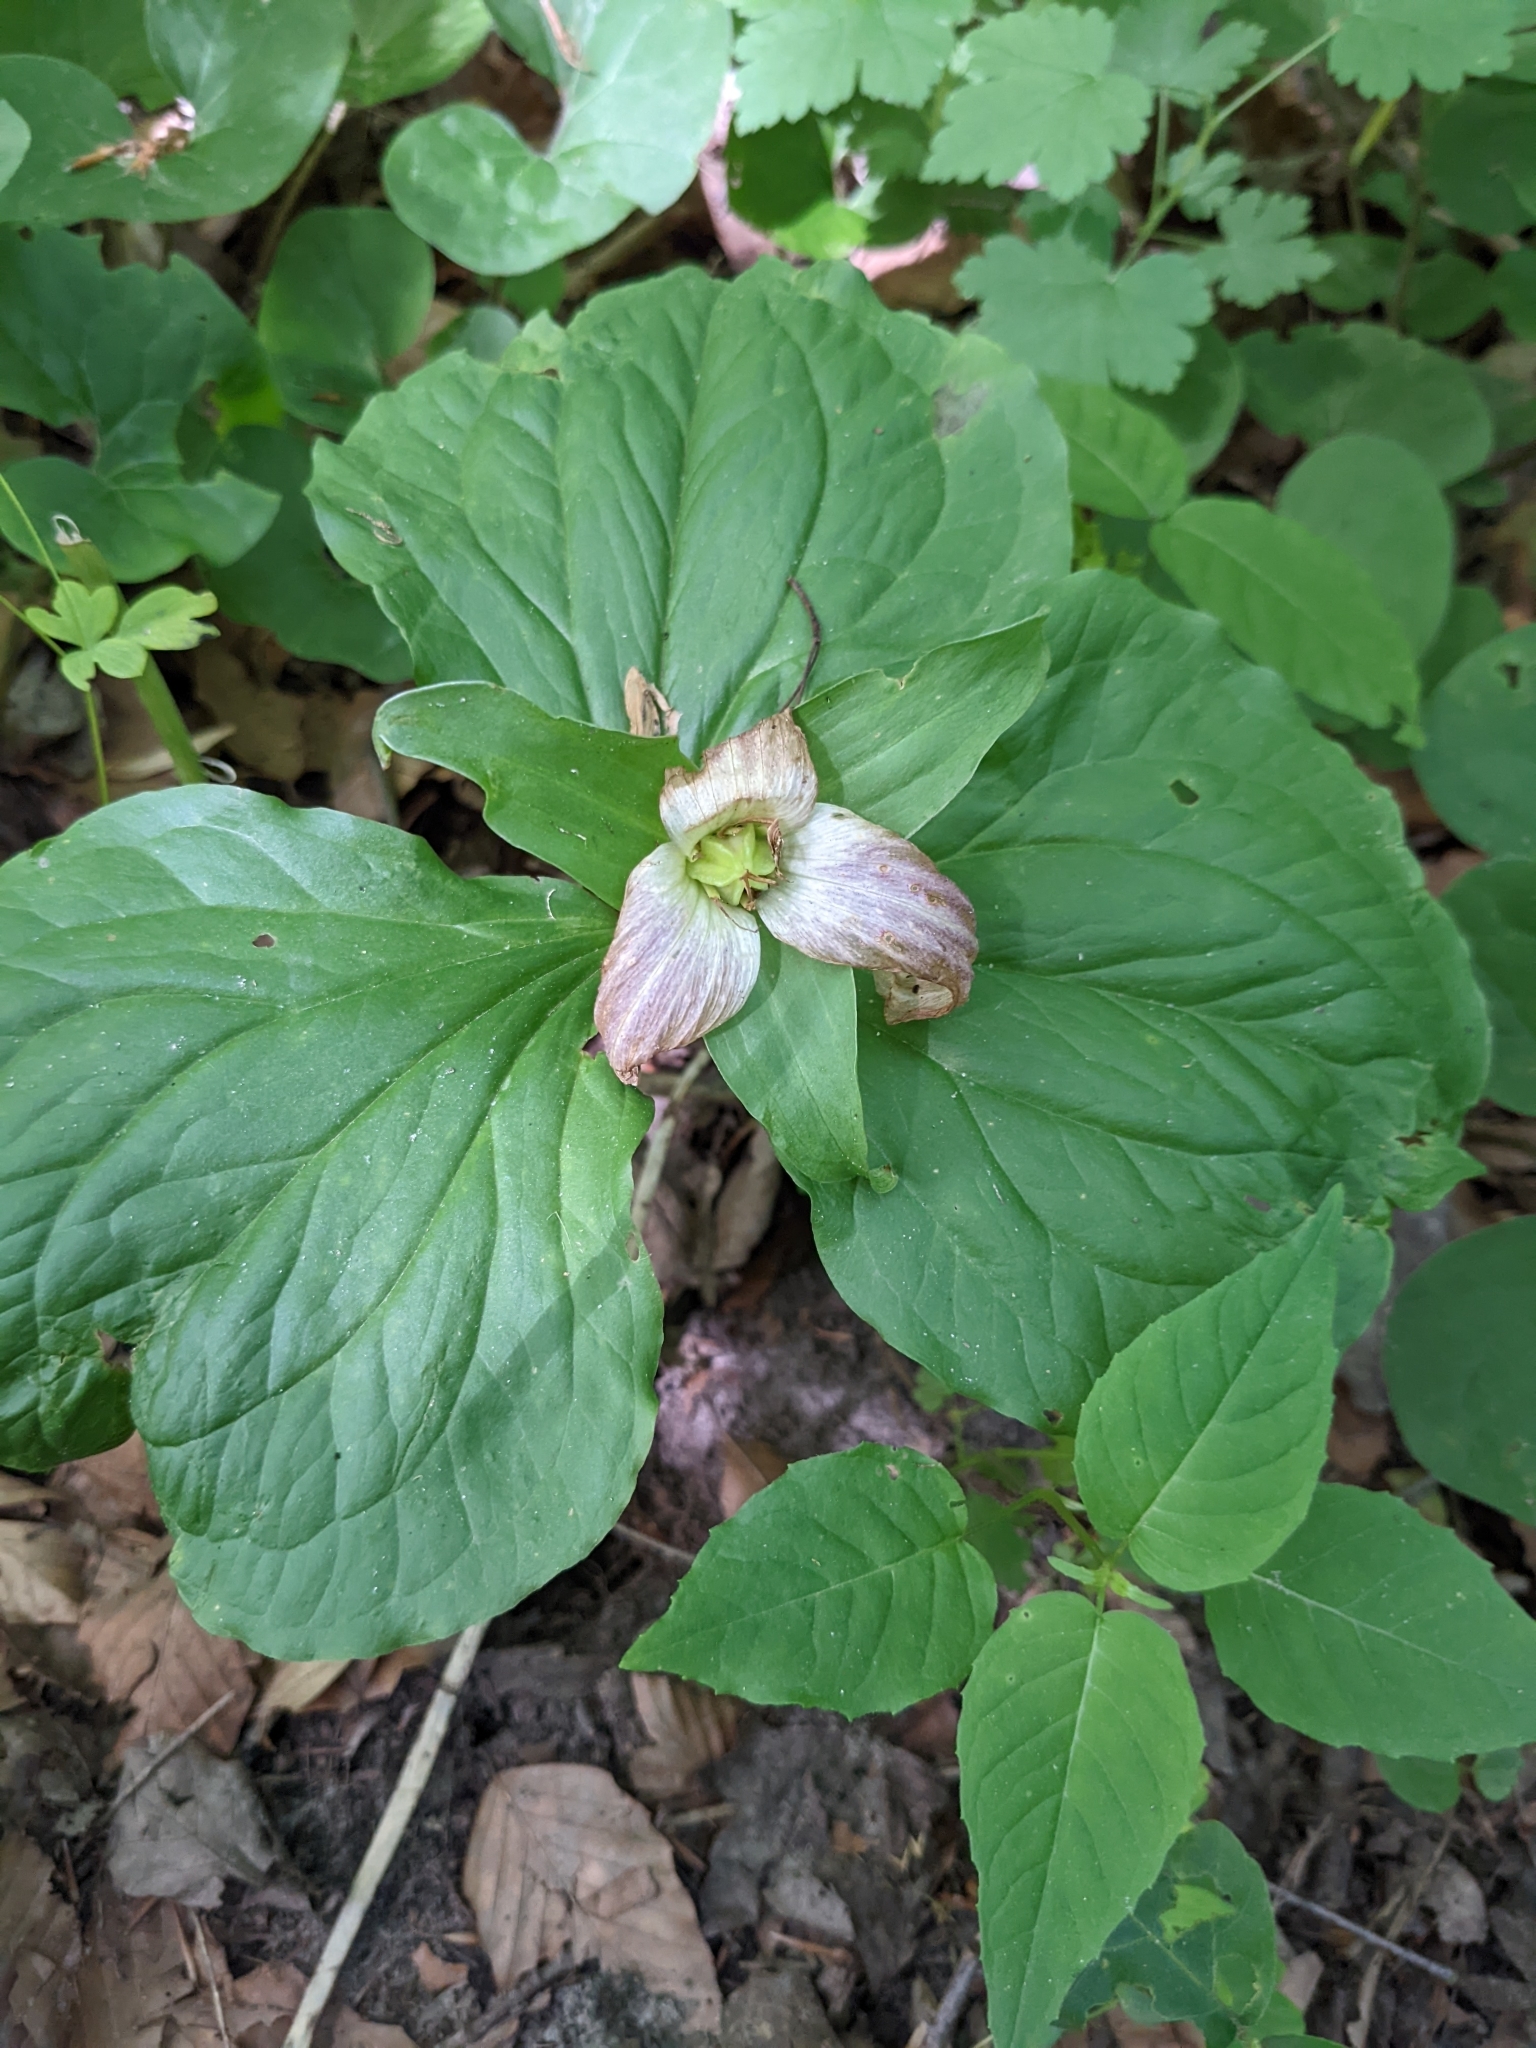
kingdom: Plantae
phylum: Tracheophyta
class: Liliopsida
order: Liliales
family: Melanthiaceae
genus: Trillium
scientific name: Trillium grandiflorum
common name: Great white trillium
